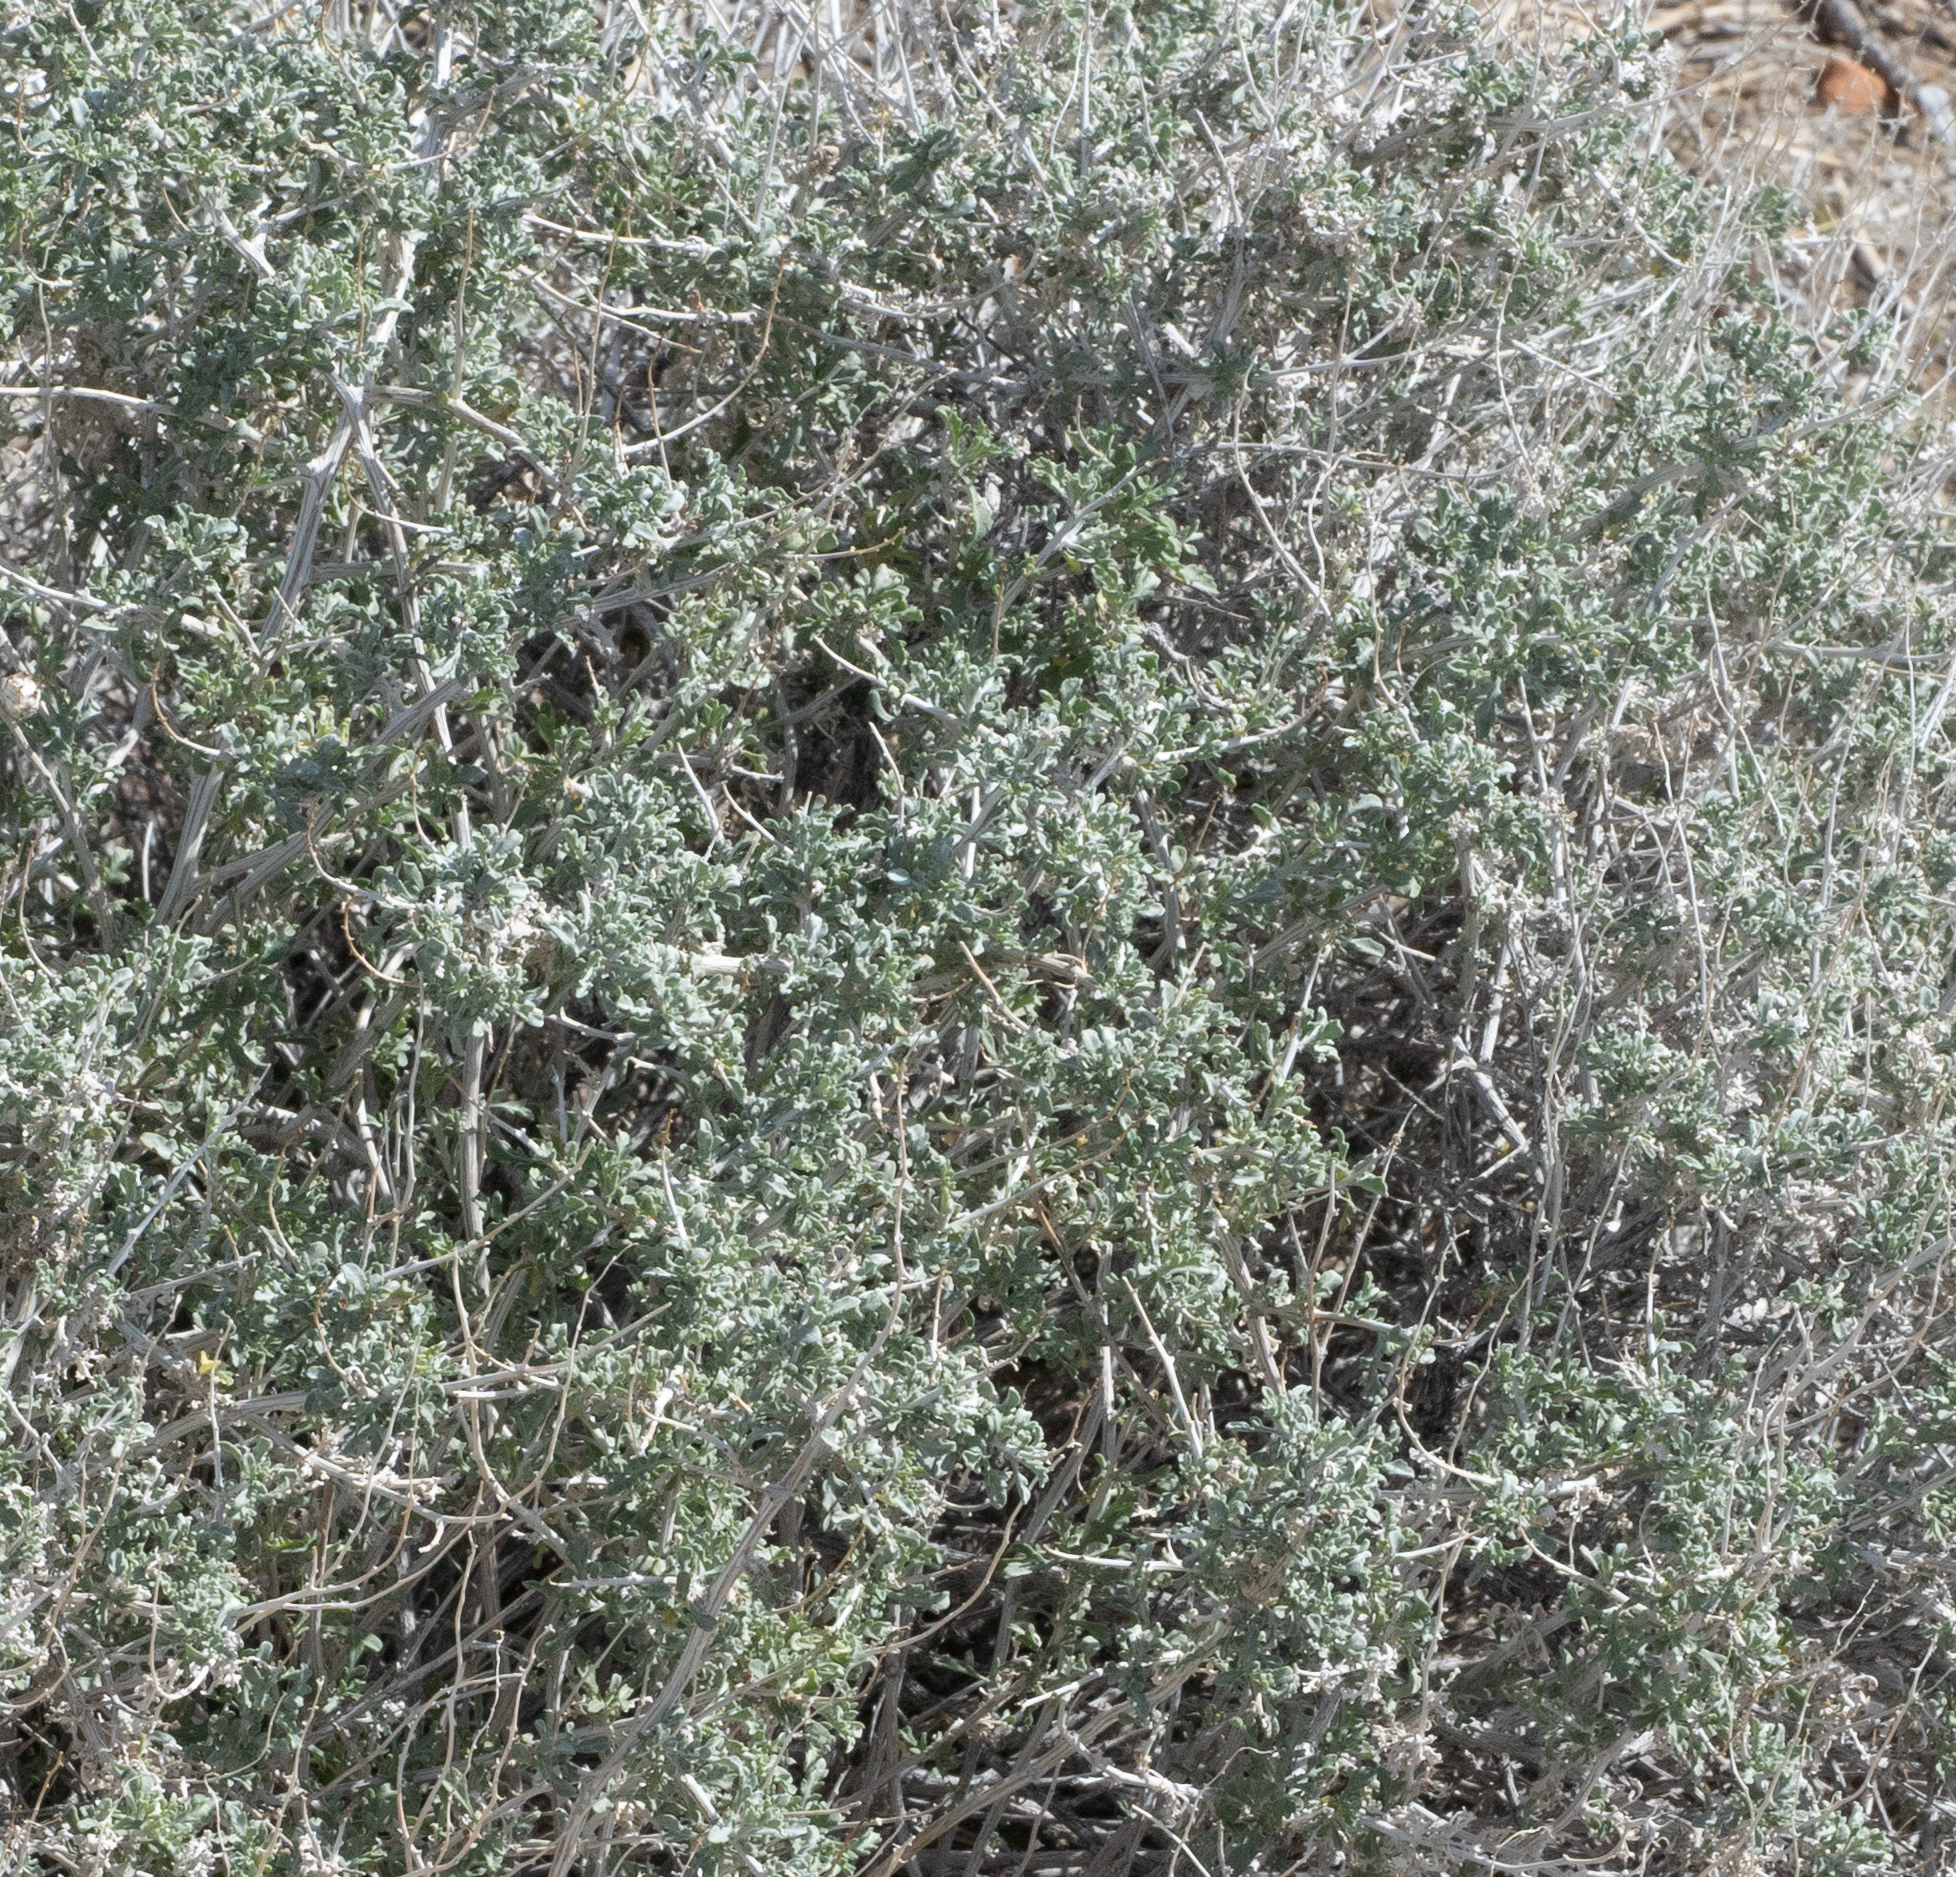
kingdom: Plantae
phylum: Tracheophyta
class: Magnoliopsida
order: Asterales
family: Asteraceae
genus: Ambrosia
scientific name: Ambrosia dumosa
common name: Bur-sage
